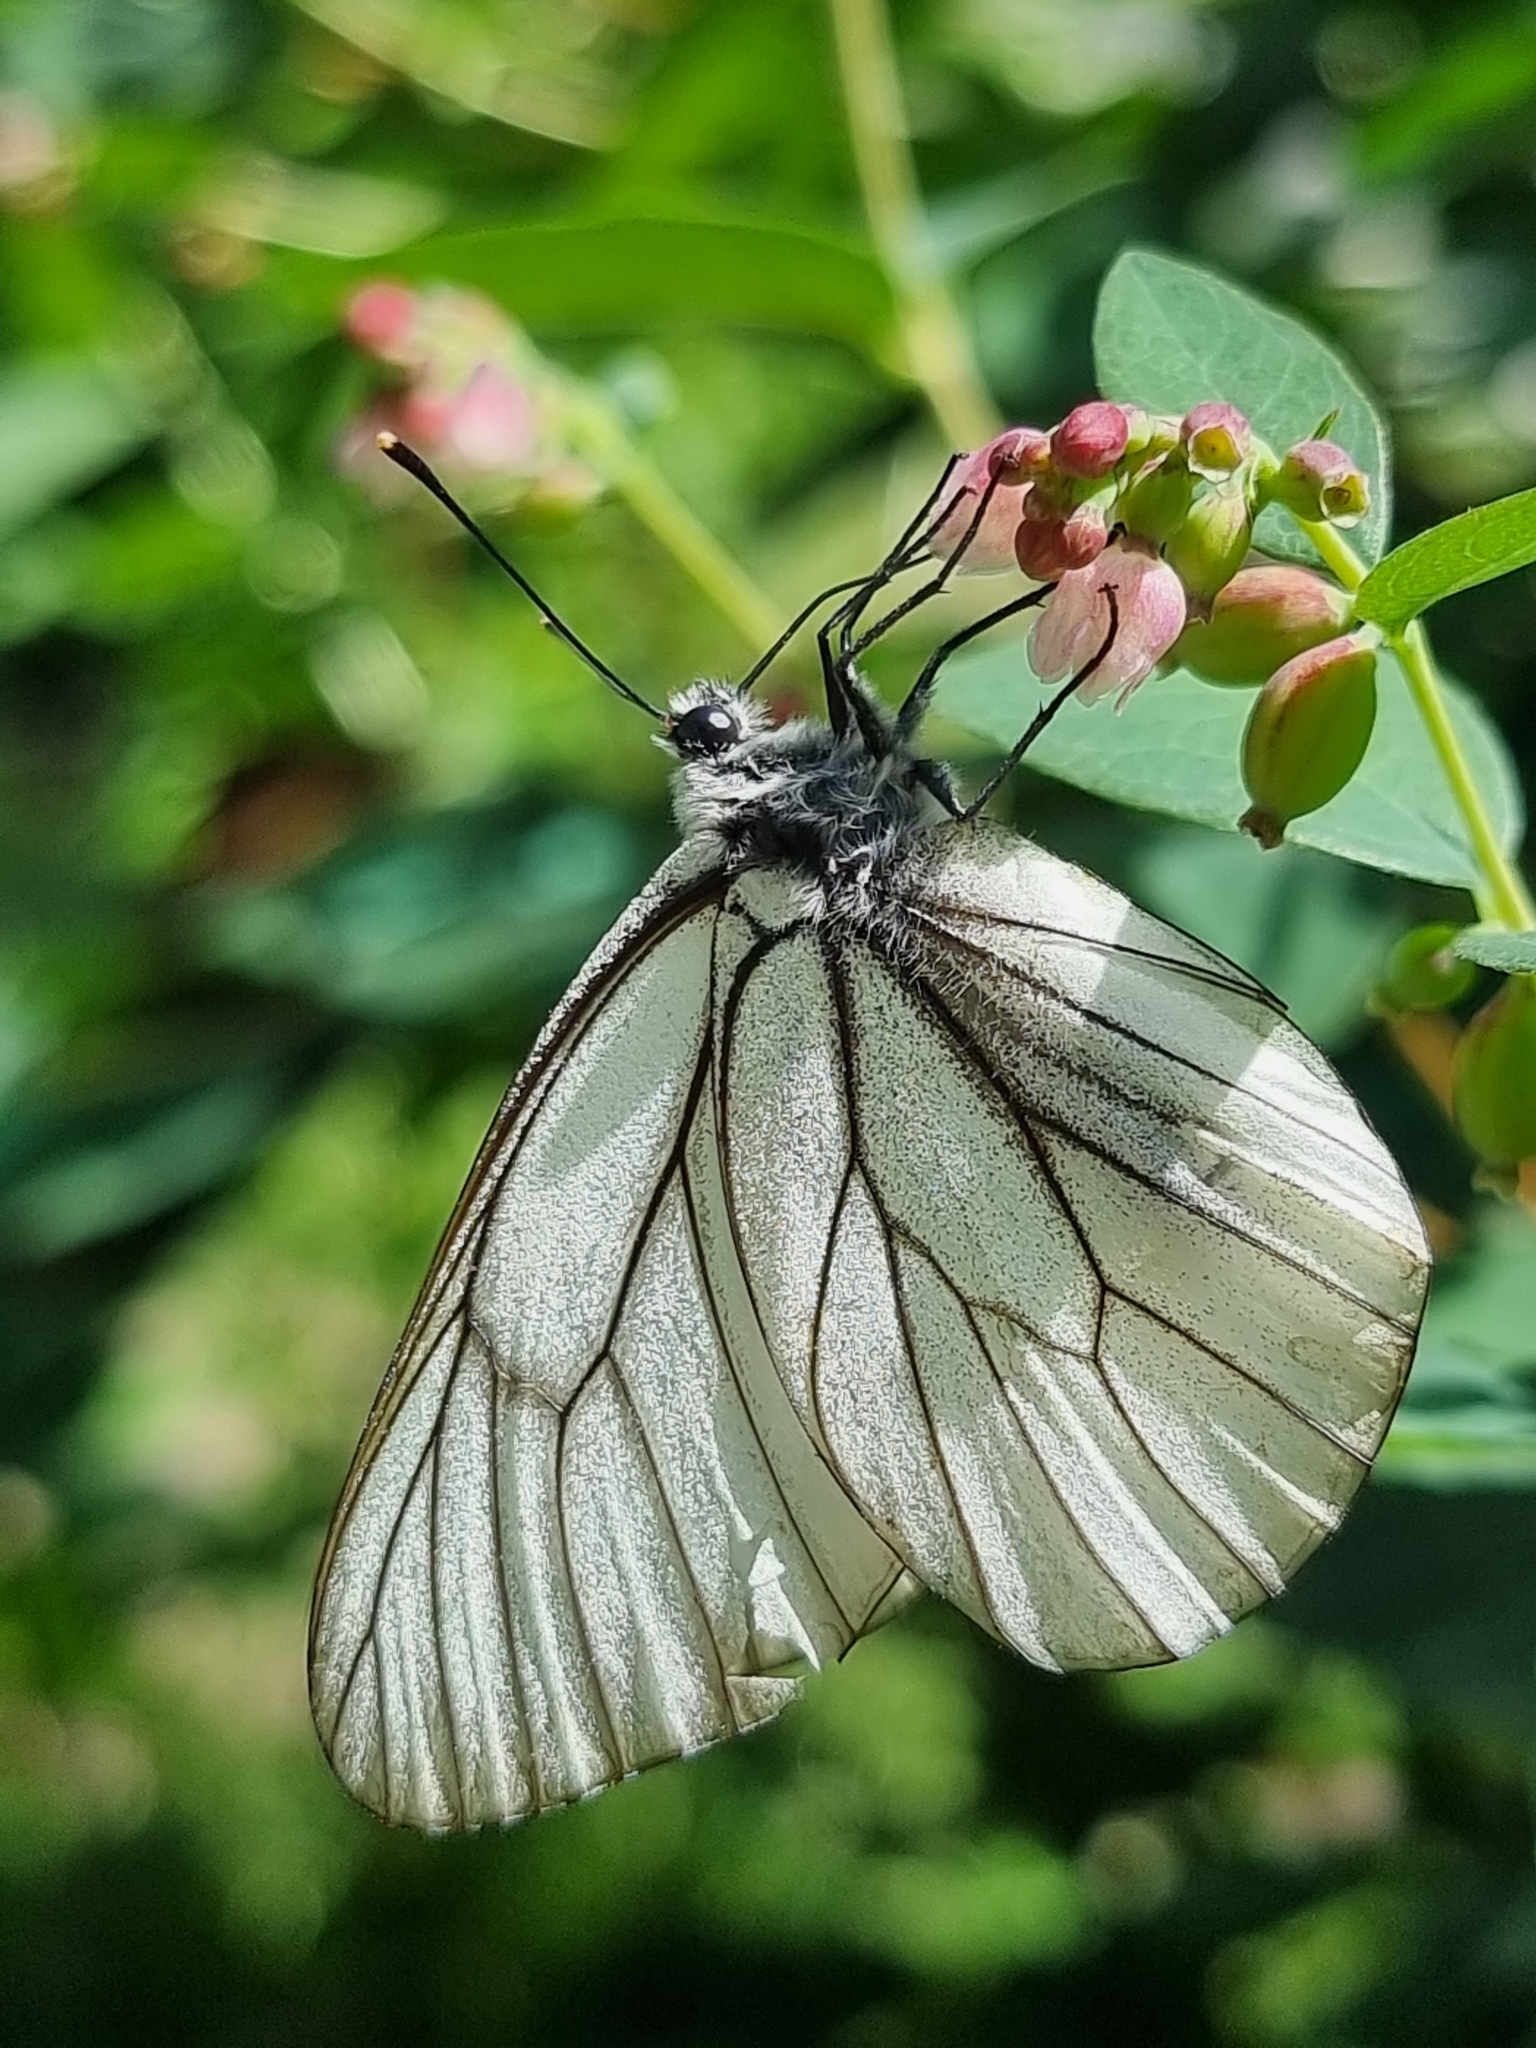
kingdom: Animalia
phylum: Arthropoda
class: Insecta
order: Lepidoptera
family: Pieridae
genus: Aporia
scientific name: Aporia crataegi
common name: Black-veined white
